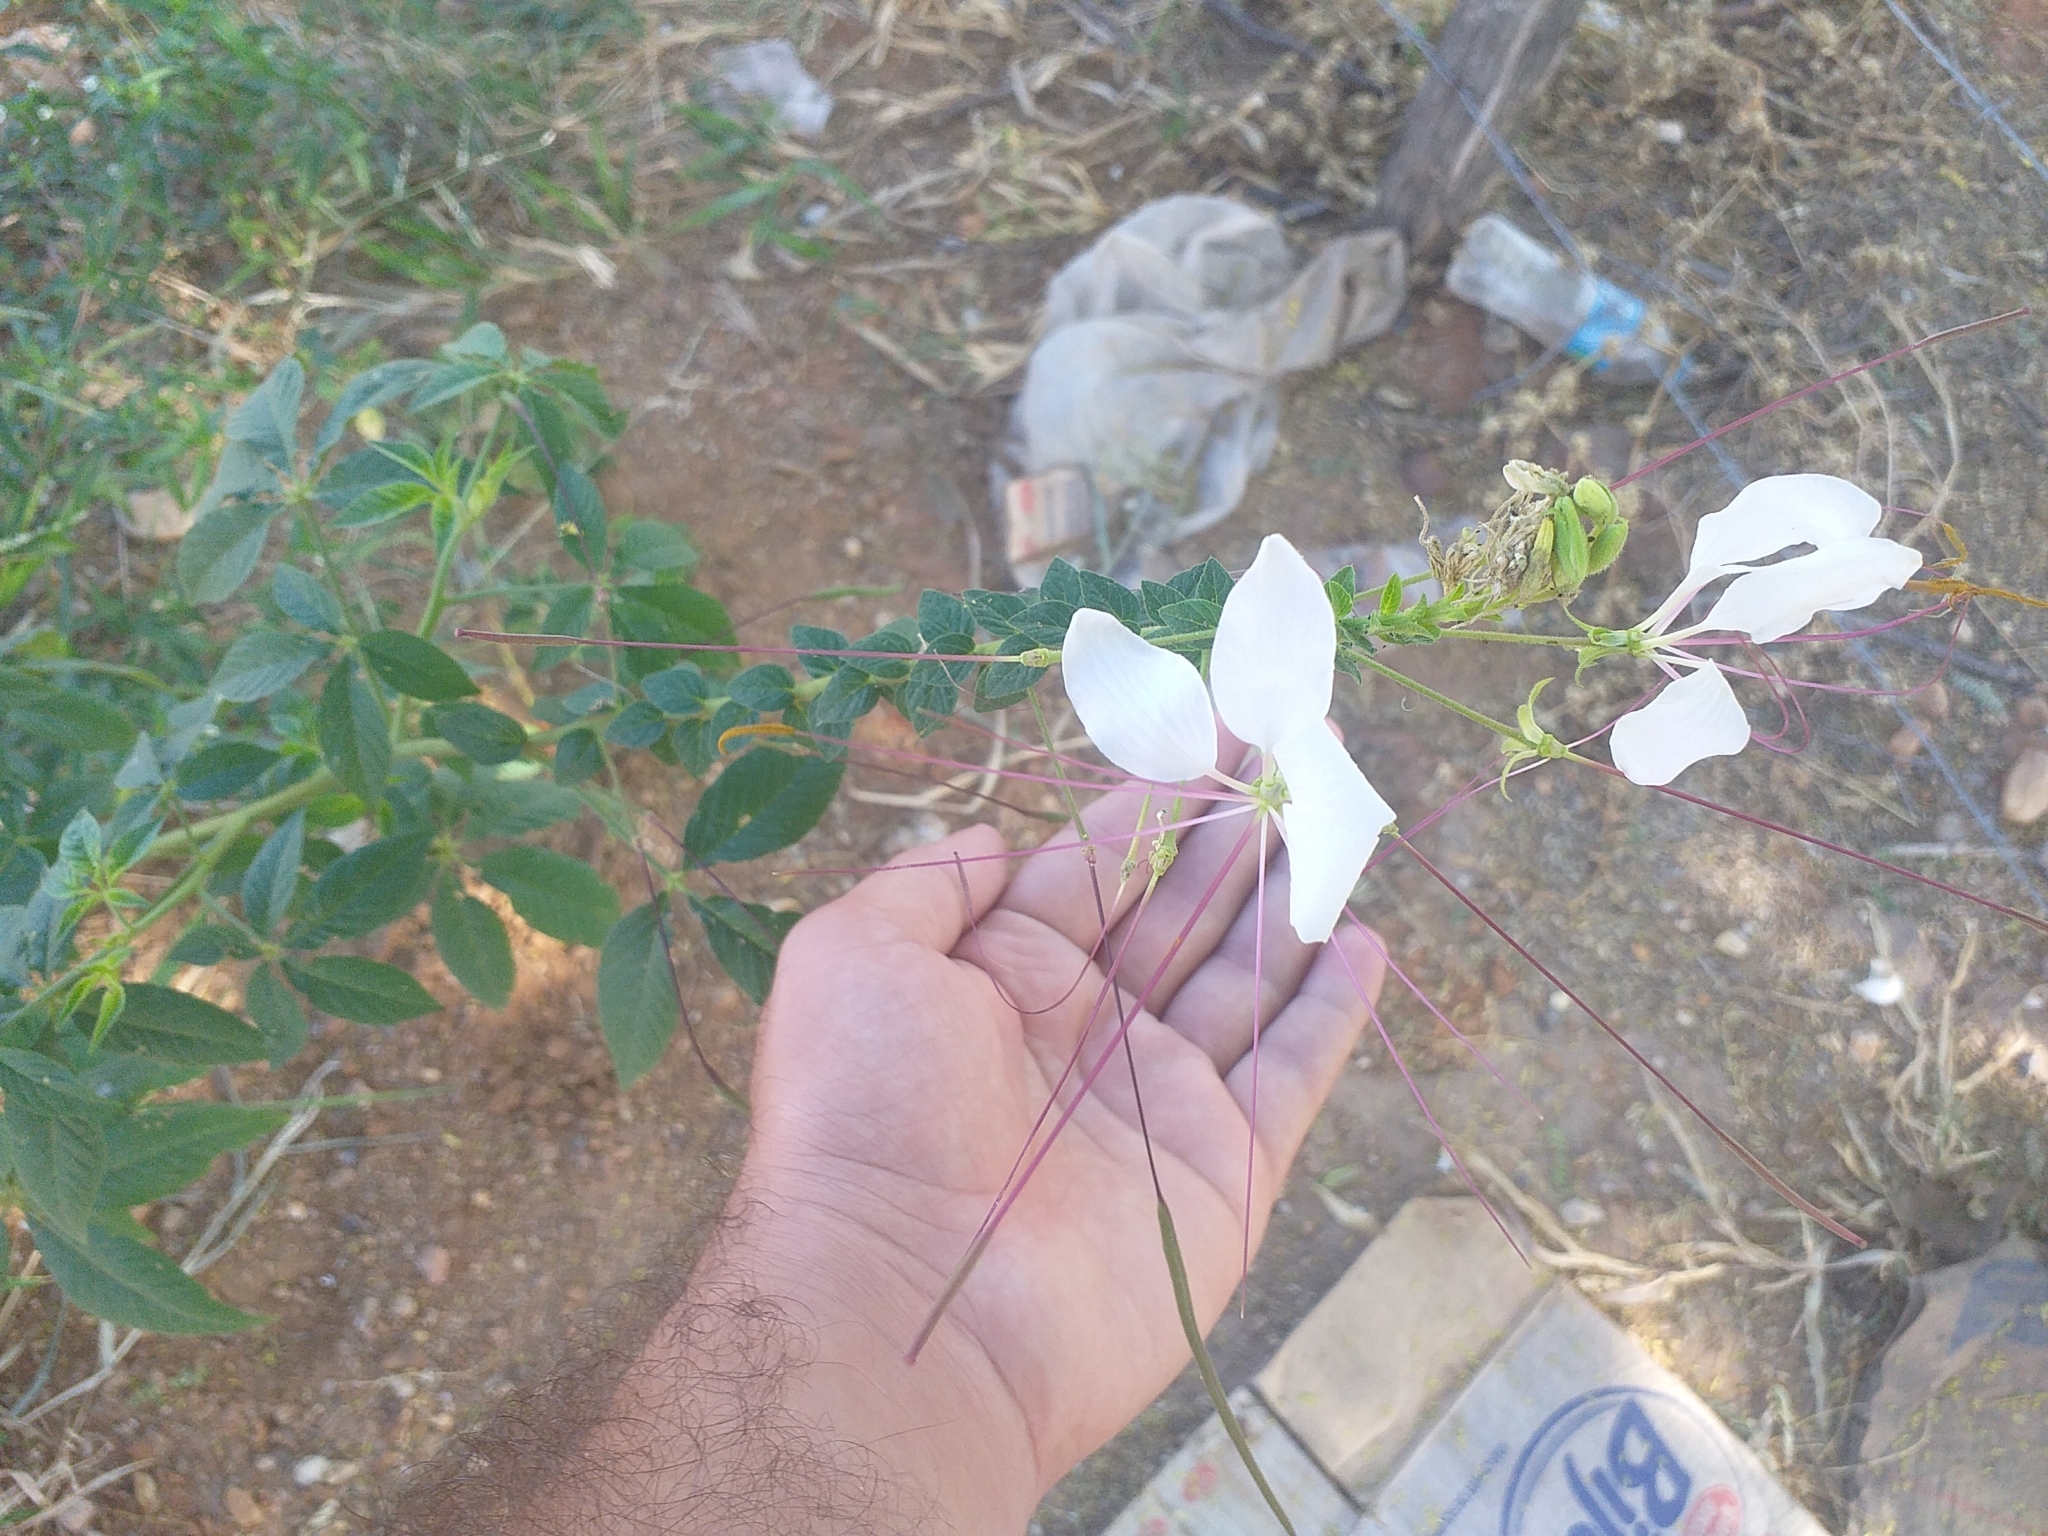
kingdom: Plantae
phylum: Tracheophyta
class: Magnoliopsida
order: Brassicales
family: Cleomaceae
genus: Tarenaya
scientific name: Tarenaya longicarpa
